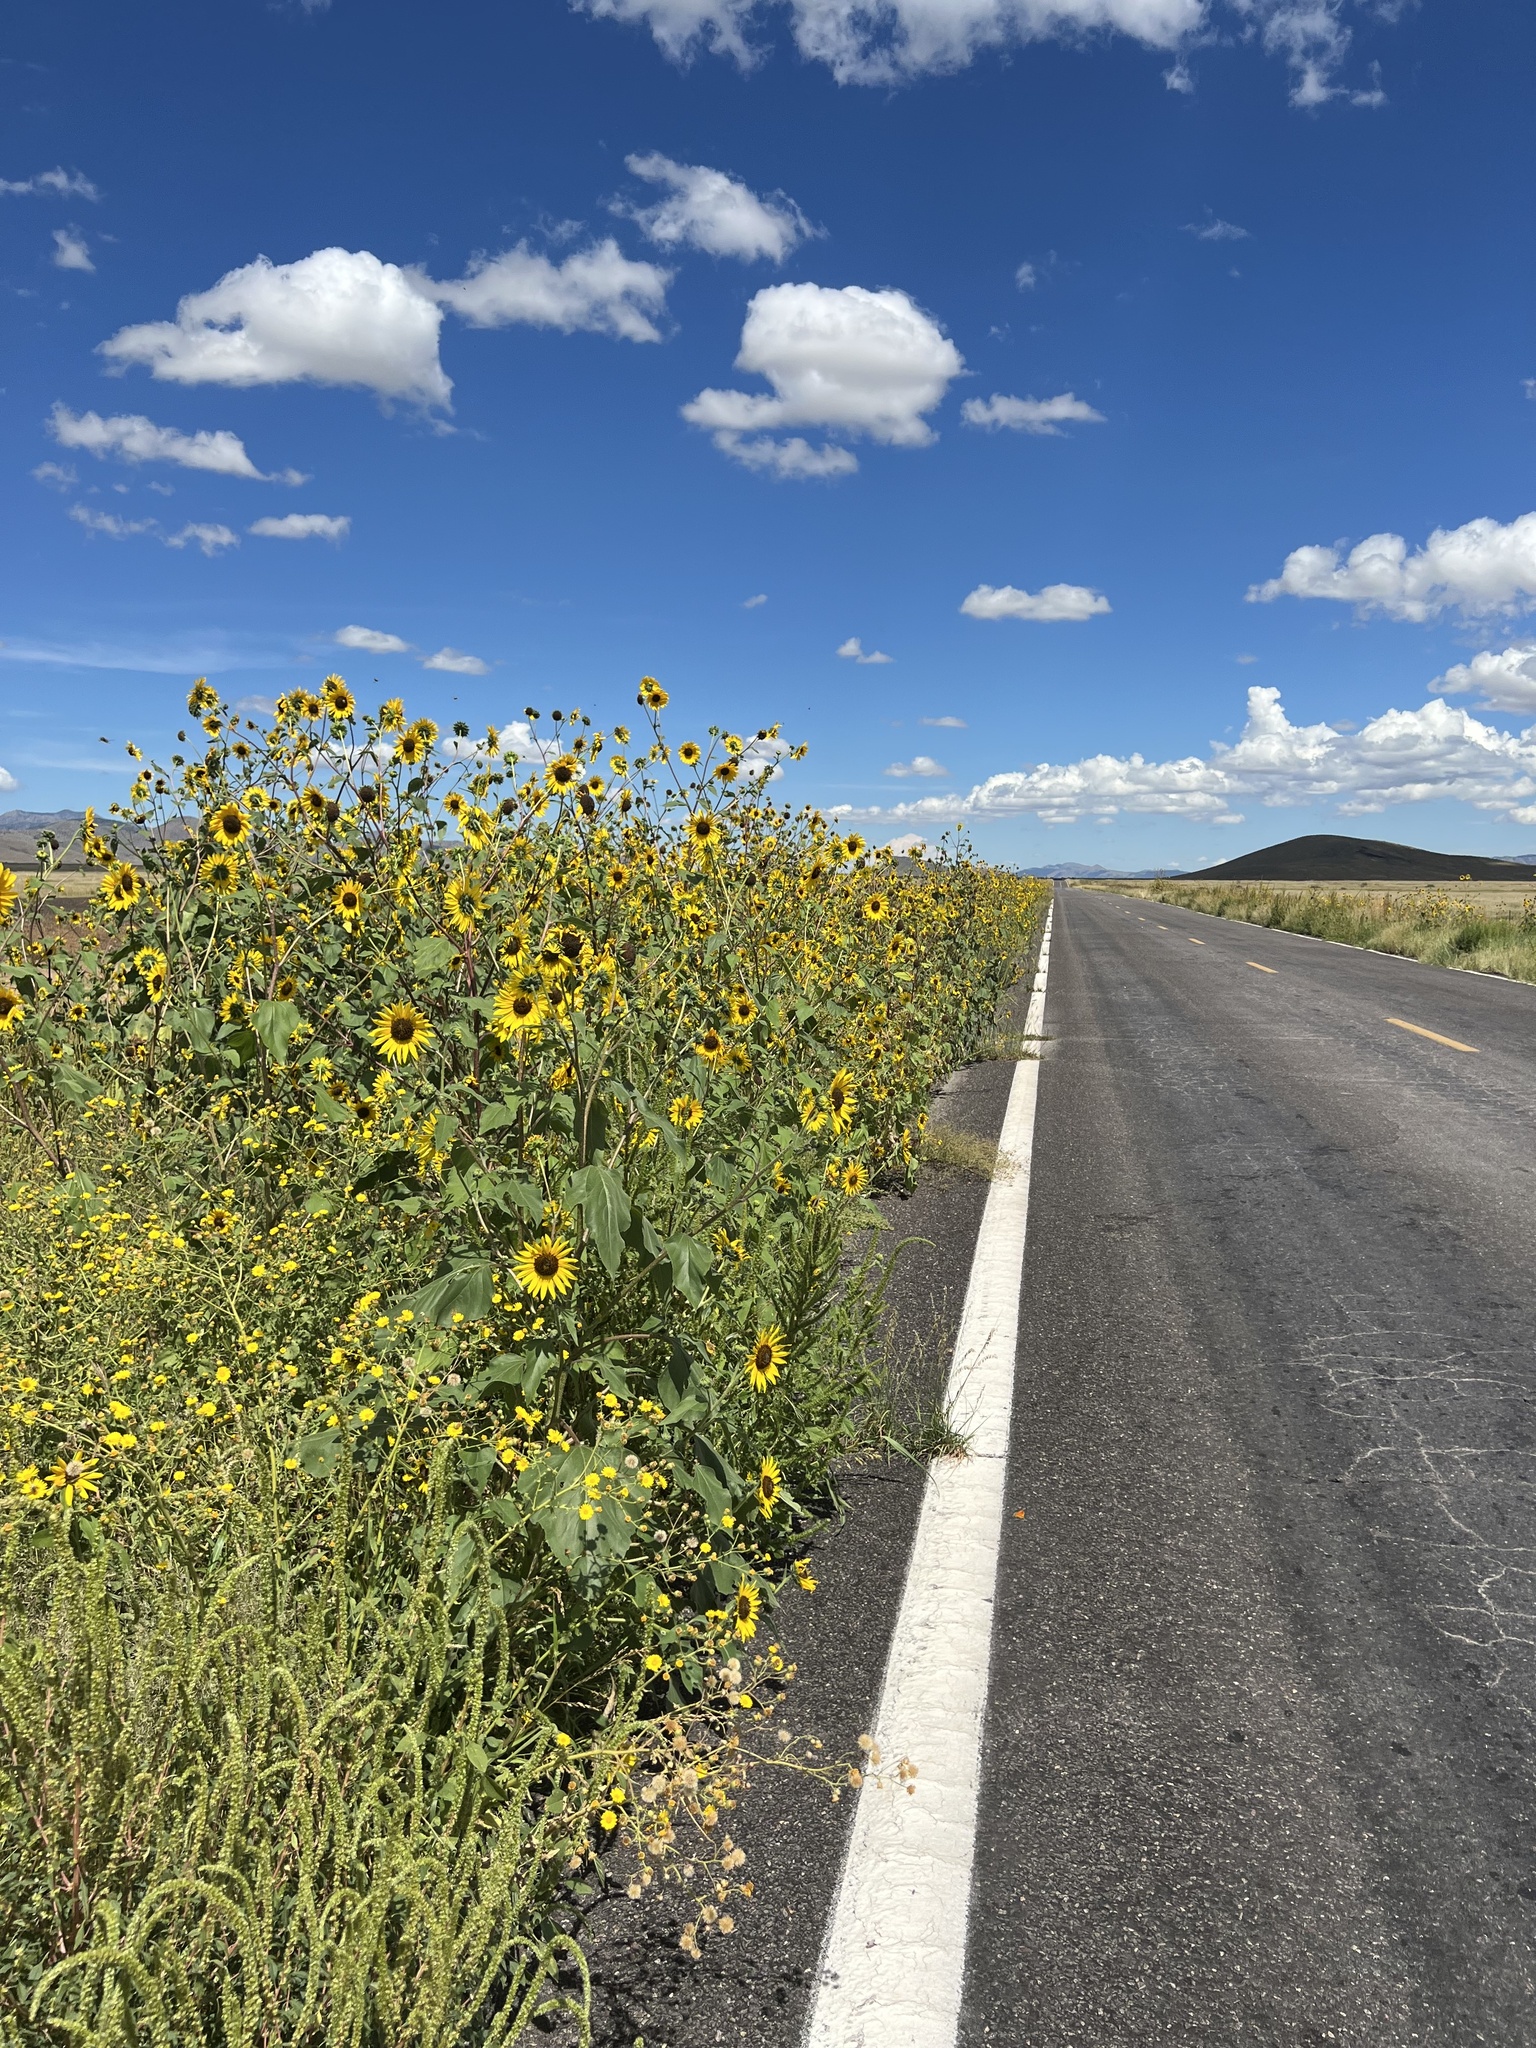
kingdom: Plantae
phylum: Tracheophyta
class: Magnoliopsida
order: Asterales
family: Asteraceae
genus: Helianthus
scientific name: Helianthus annuus
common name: Sunflower
